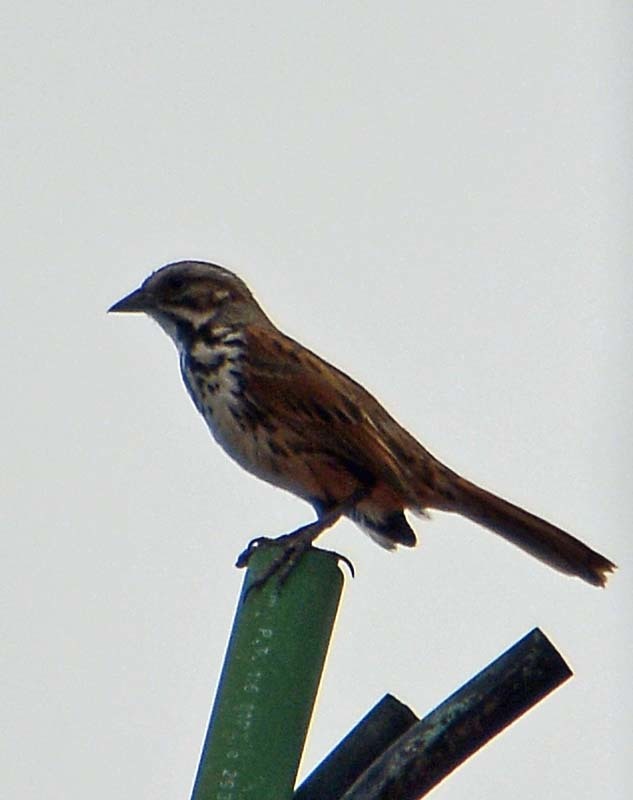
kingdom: Animalia
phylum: Chordata
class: Aves
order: Passeriformes
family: Passerellidae
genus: Melospiza
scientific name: Melospiza melodia
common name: Song sparrow
